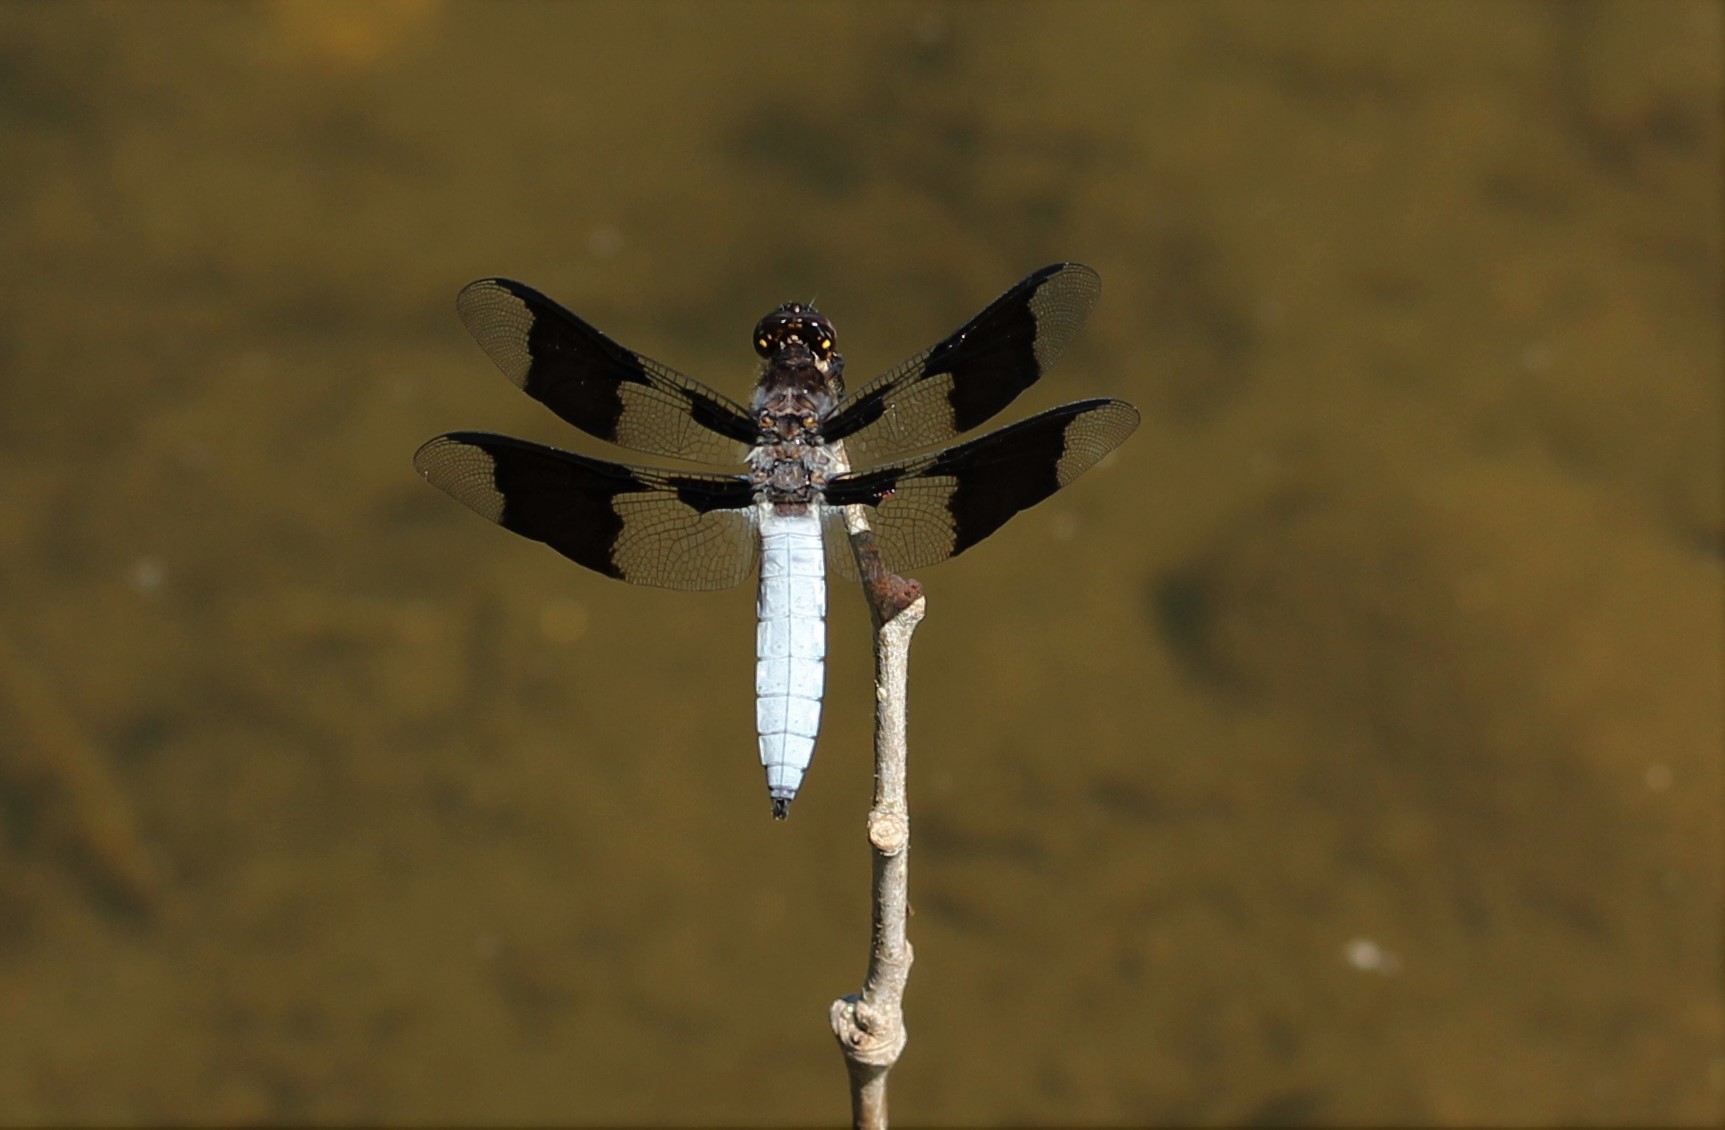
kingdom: Animalia
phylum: Arthropoda
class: Insecta
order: Odonata
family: Libellulidae
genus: Plathemis
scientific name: Plathemis lydia
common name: Common whitetail
